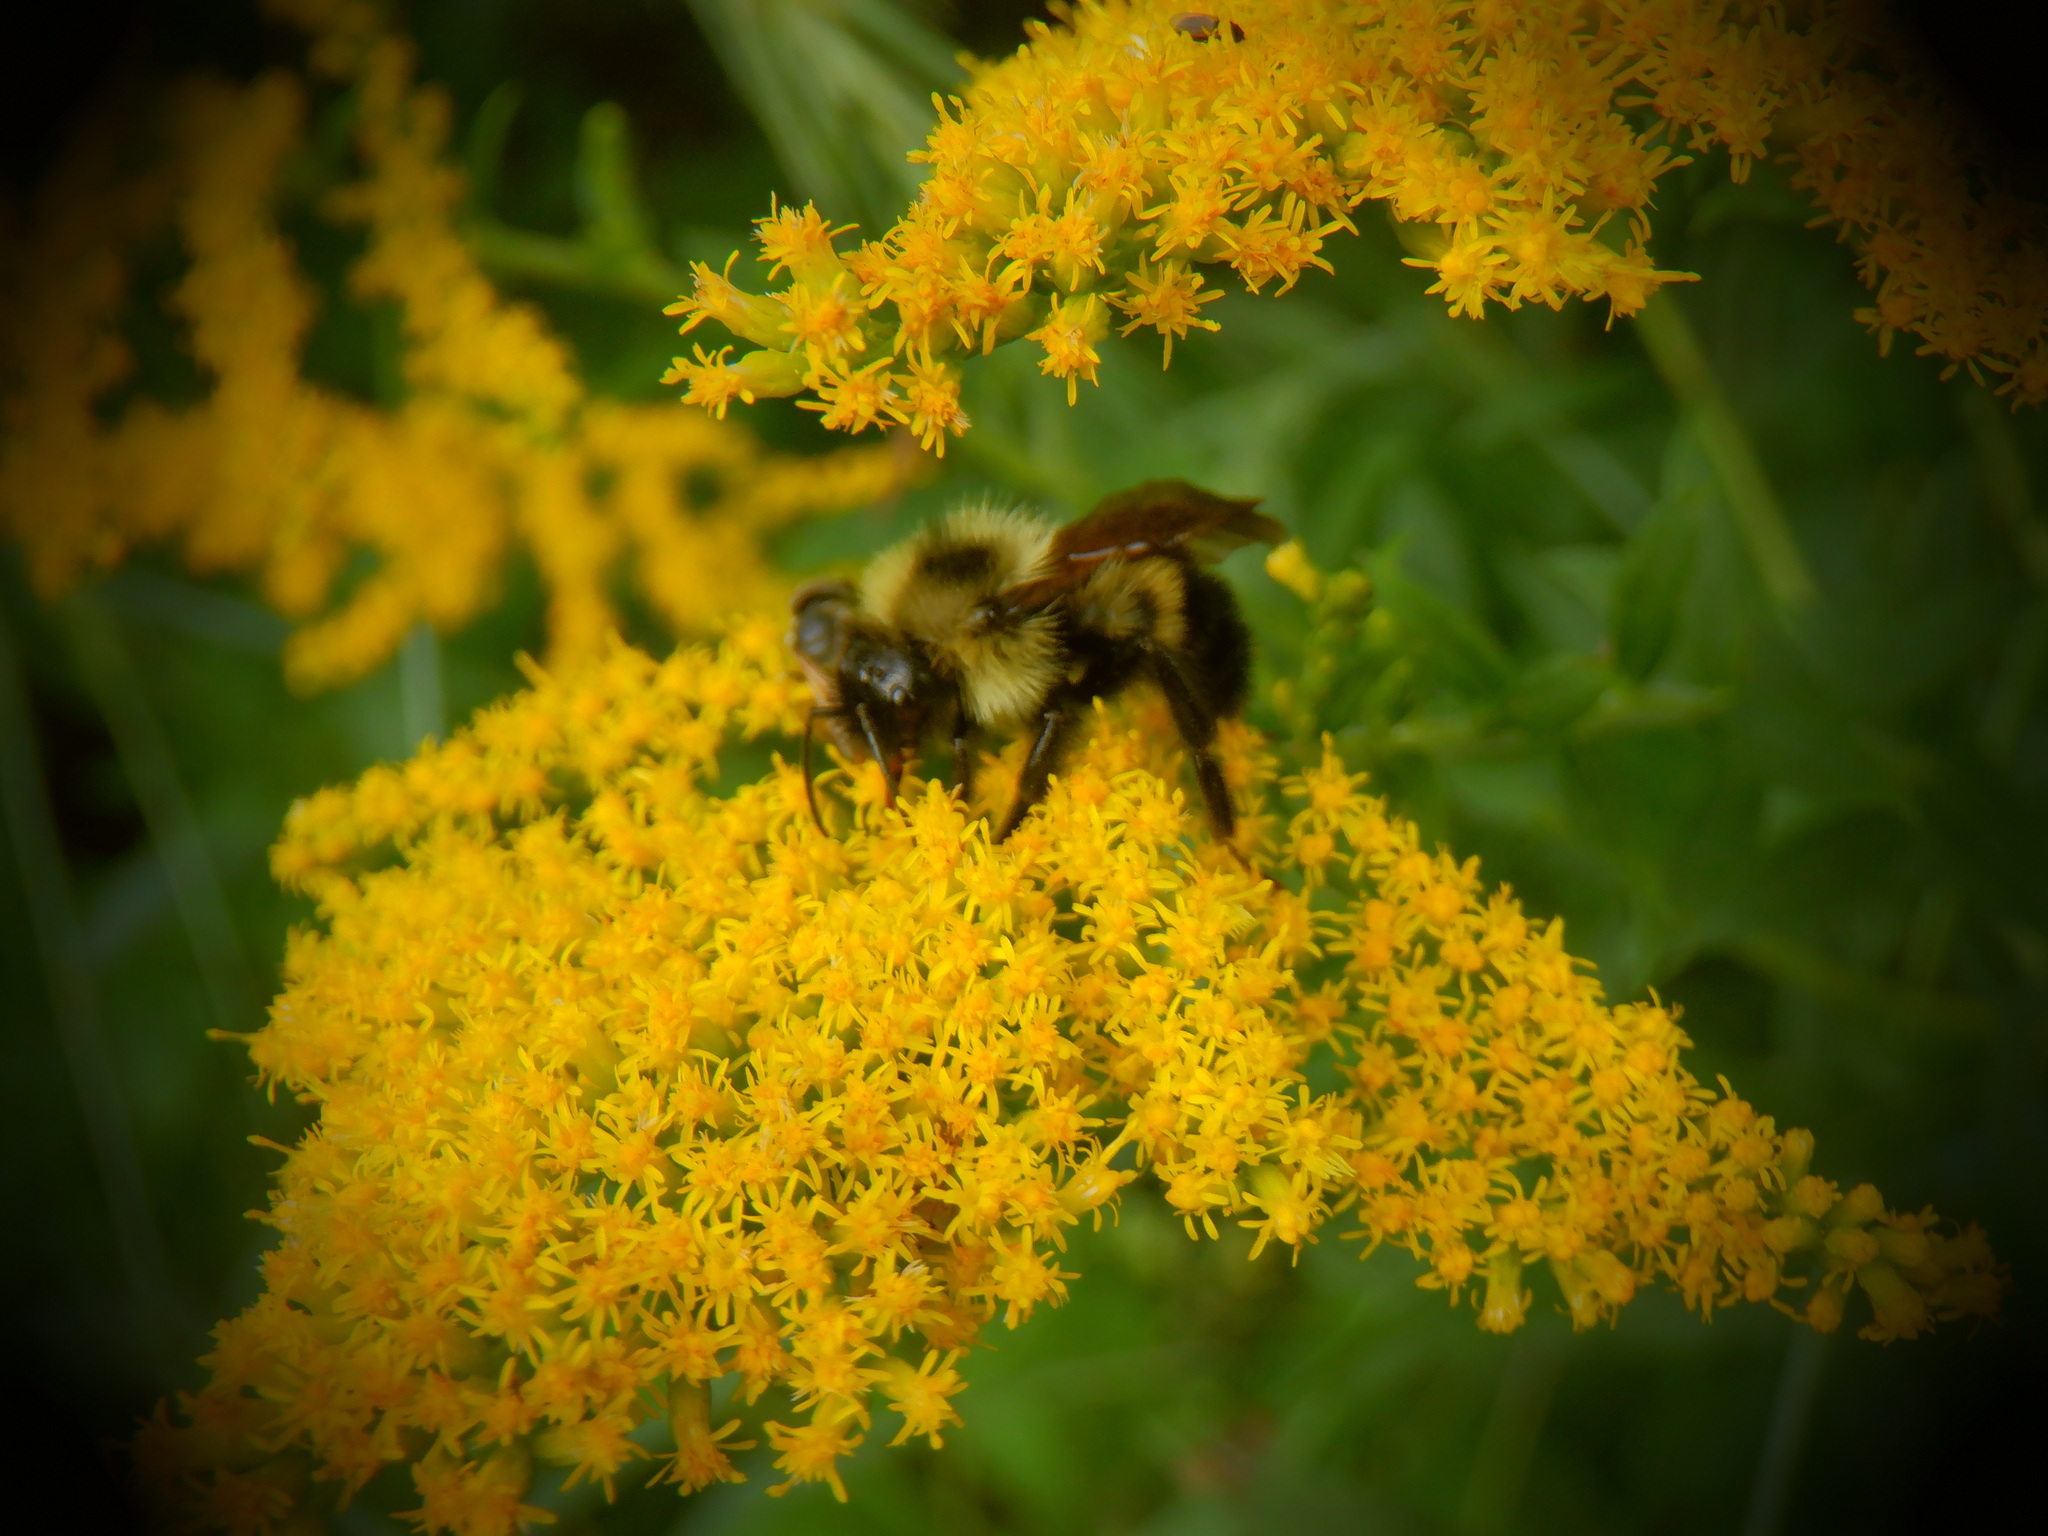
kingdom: Animalia
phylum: Arthropoda
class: Insecta
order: Hymenoptera
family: Apidae
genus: Bombus
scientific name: Bombus citrinus
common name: Lemon cuckoo bumble bee
